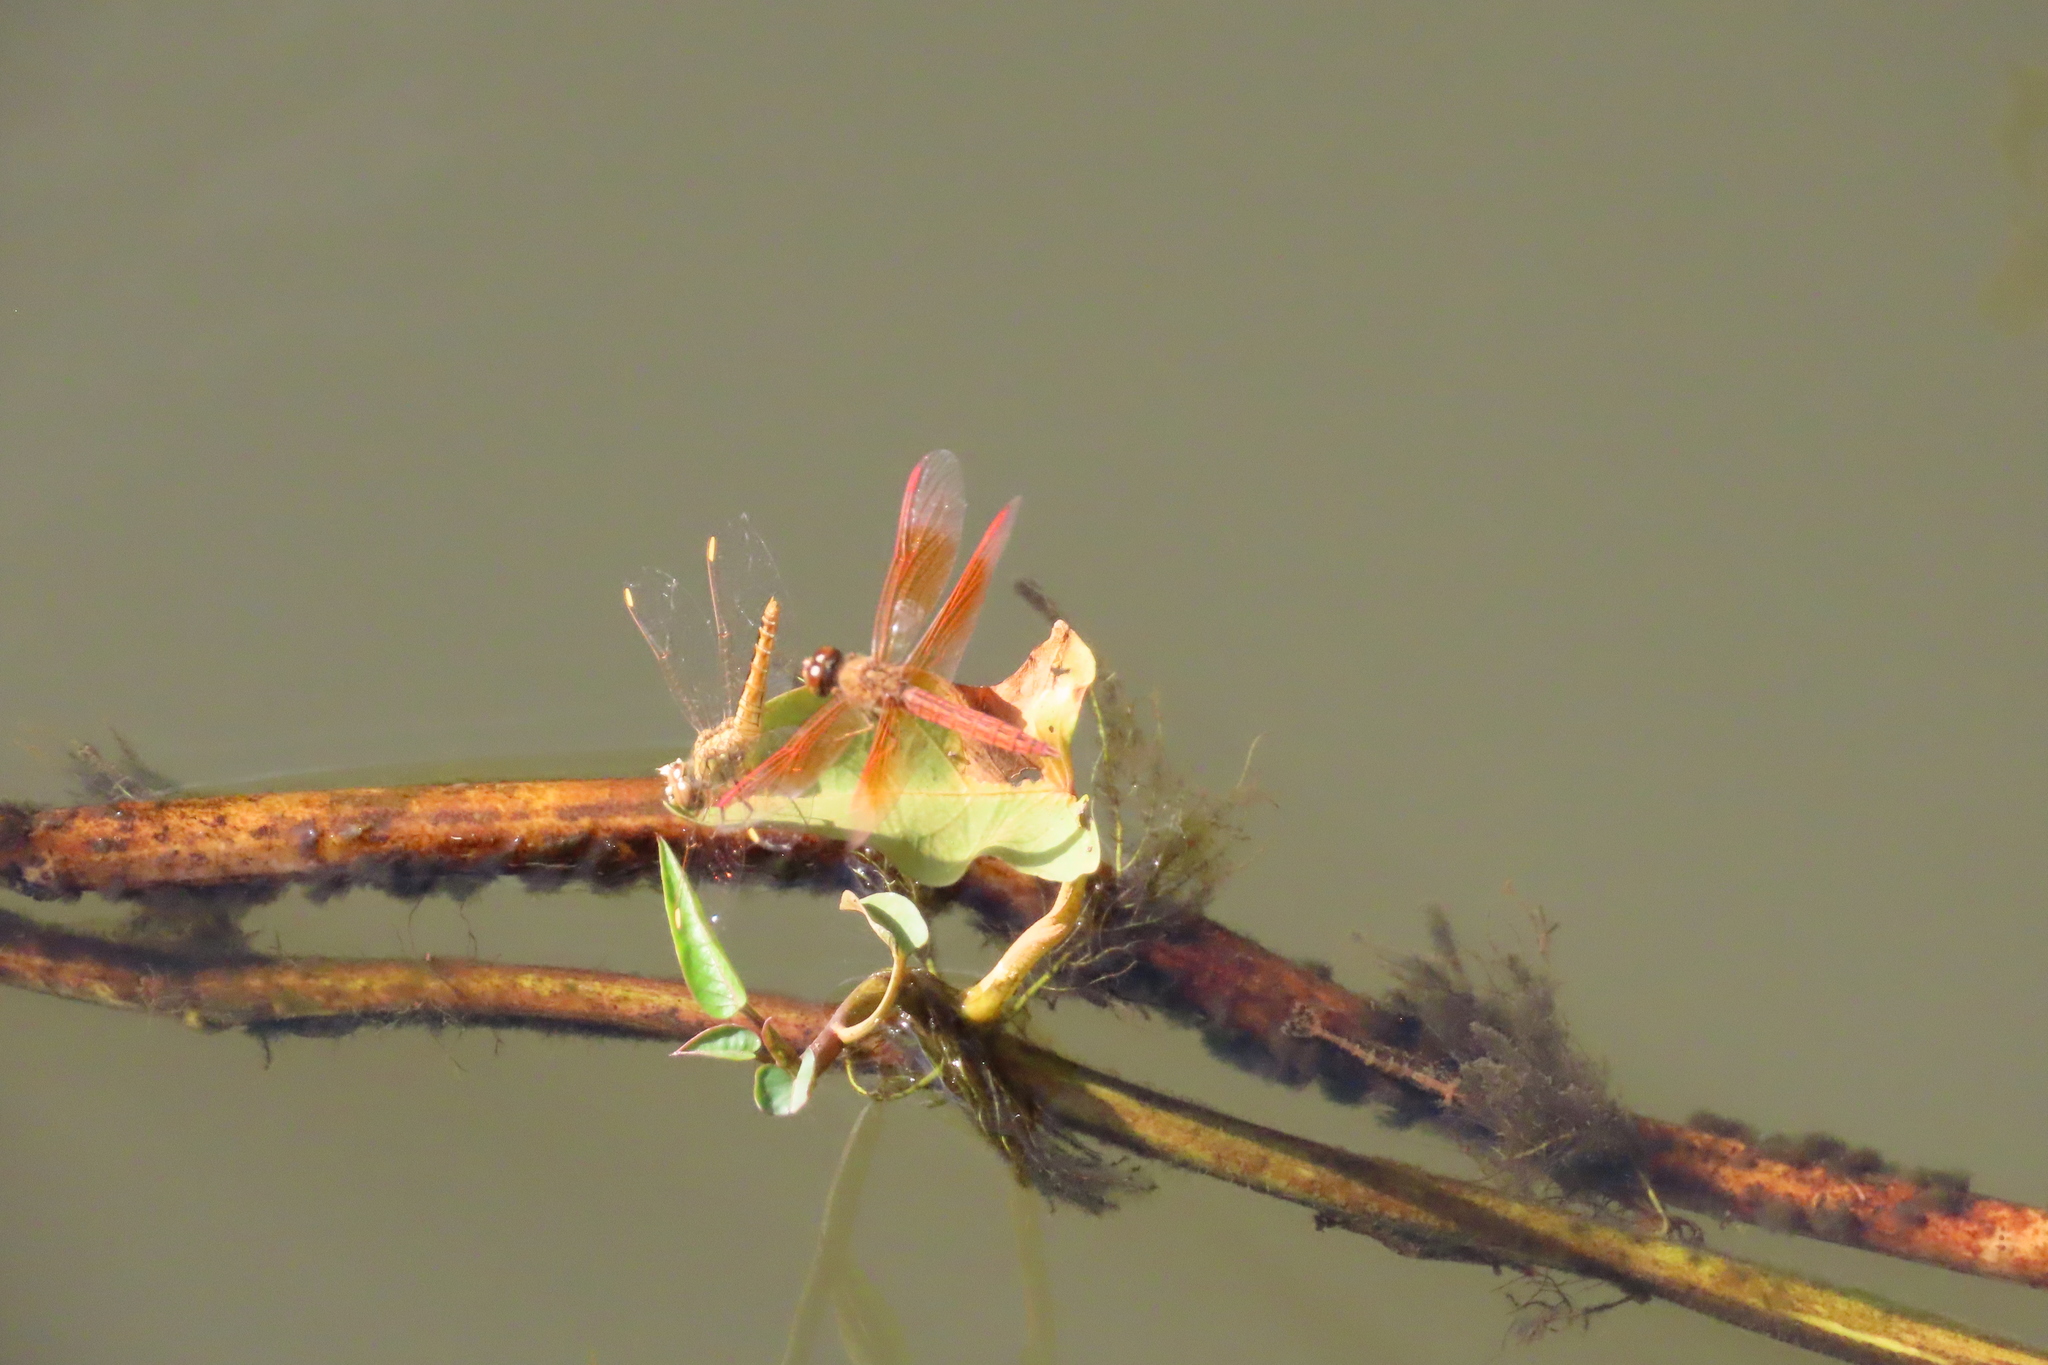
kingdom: Animalia
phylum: Arthropoda
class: Insecta
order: Odonata
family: Libellulidae
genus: Brachythemis
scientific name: Brachythemis contaminata
